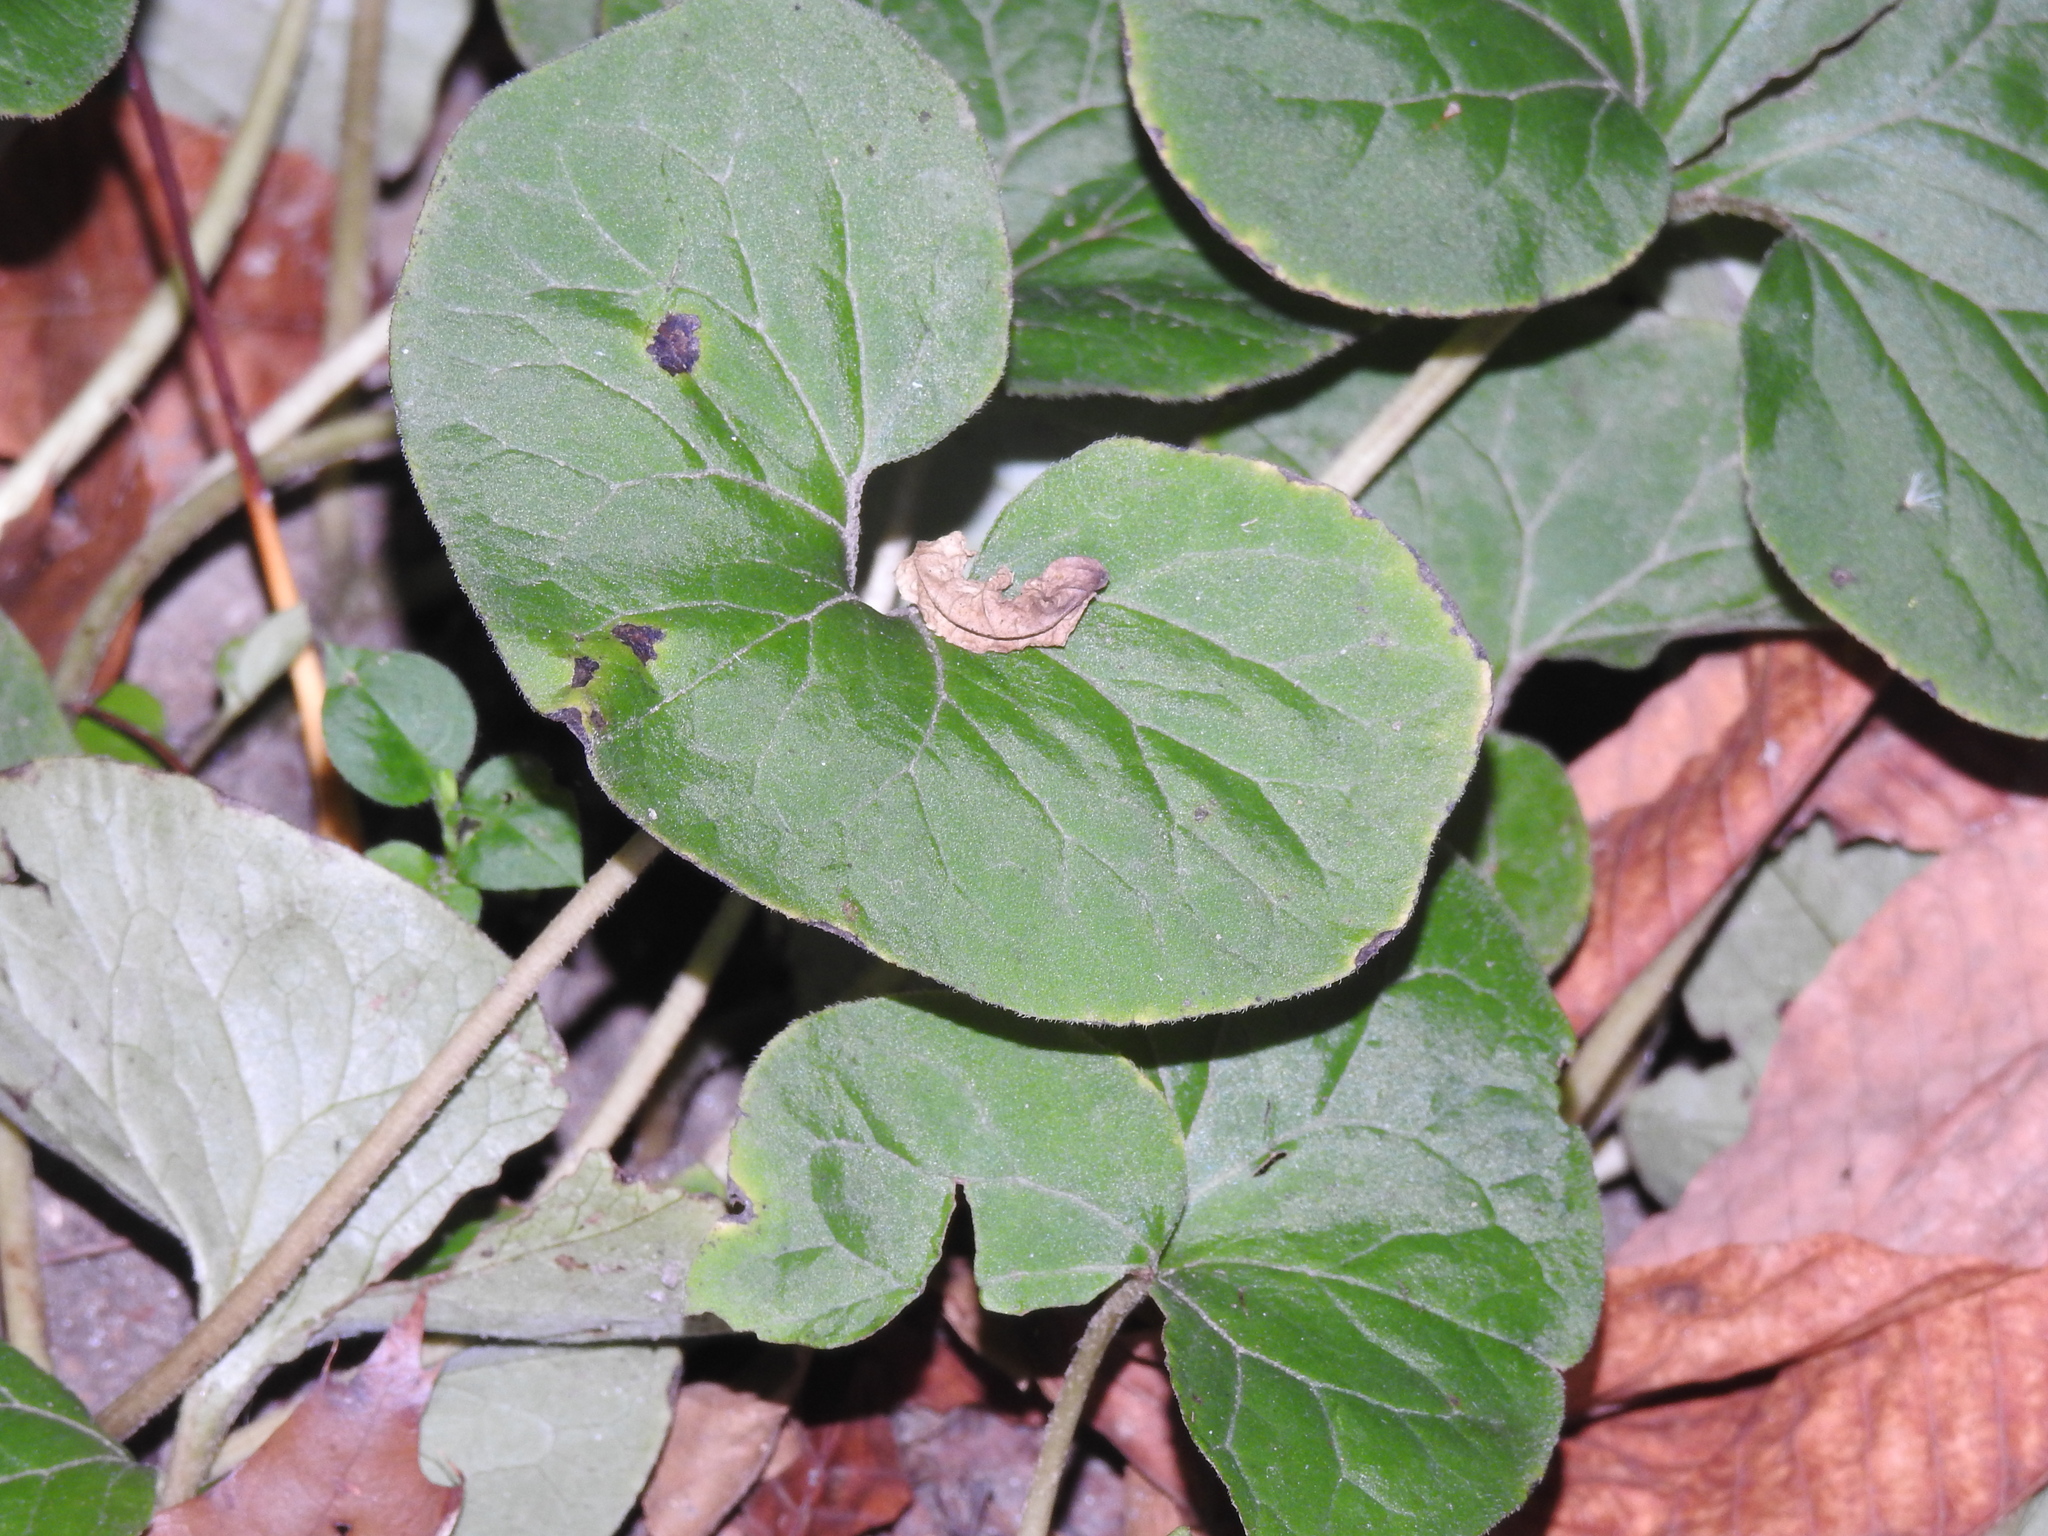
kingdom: Plantae
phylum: Tracheophyta
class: Magnoliopsida
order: Piperales
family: Aristolochiaceae
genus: Asarum
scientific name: Asarum canadense
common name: Wild ginger
